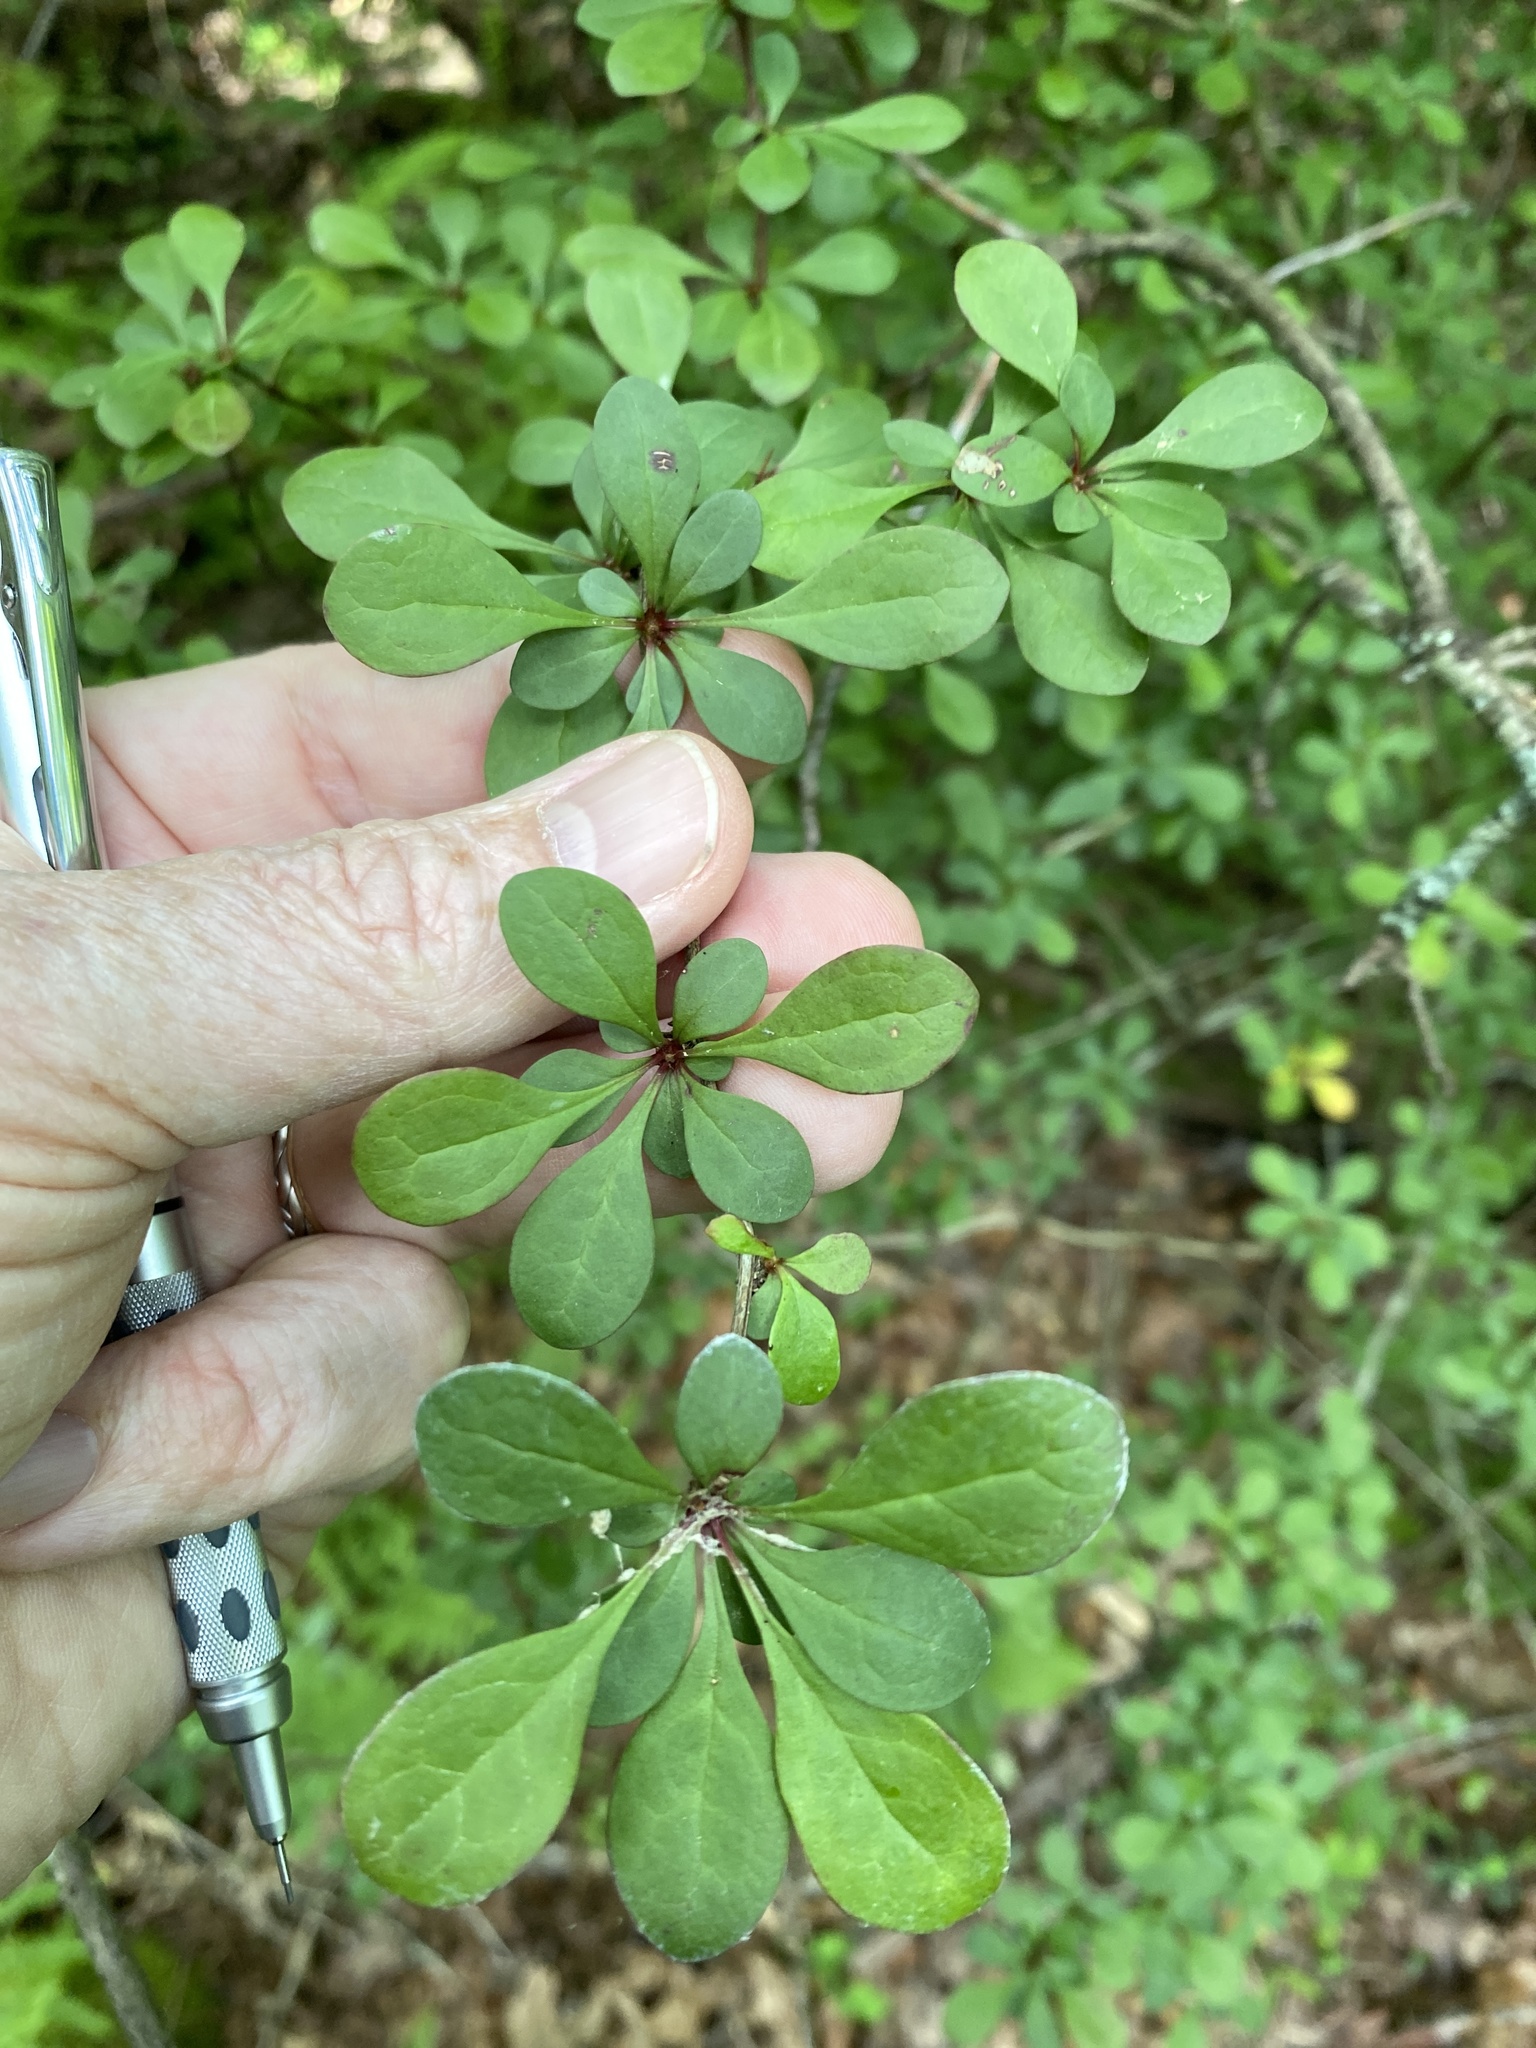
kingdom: Plantae
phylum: Tracheophyta
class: Magnoliopsida
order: Ranunculales
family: Berberidaceae
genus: Berberis
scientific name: Berberis thunbergii
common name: Japanese barberry
